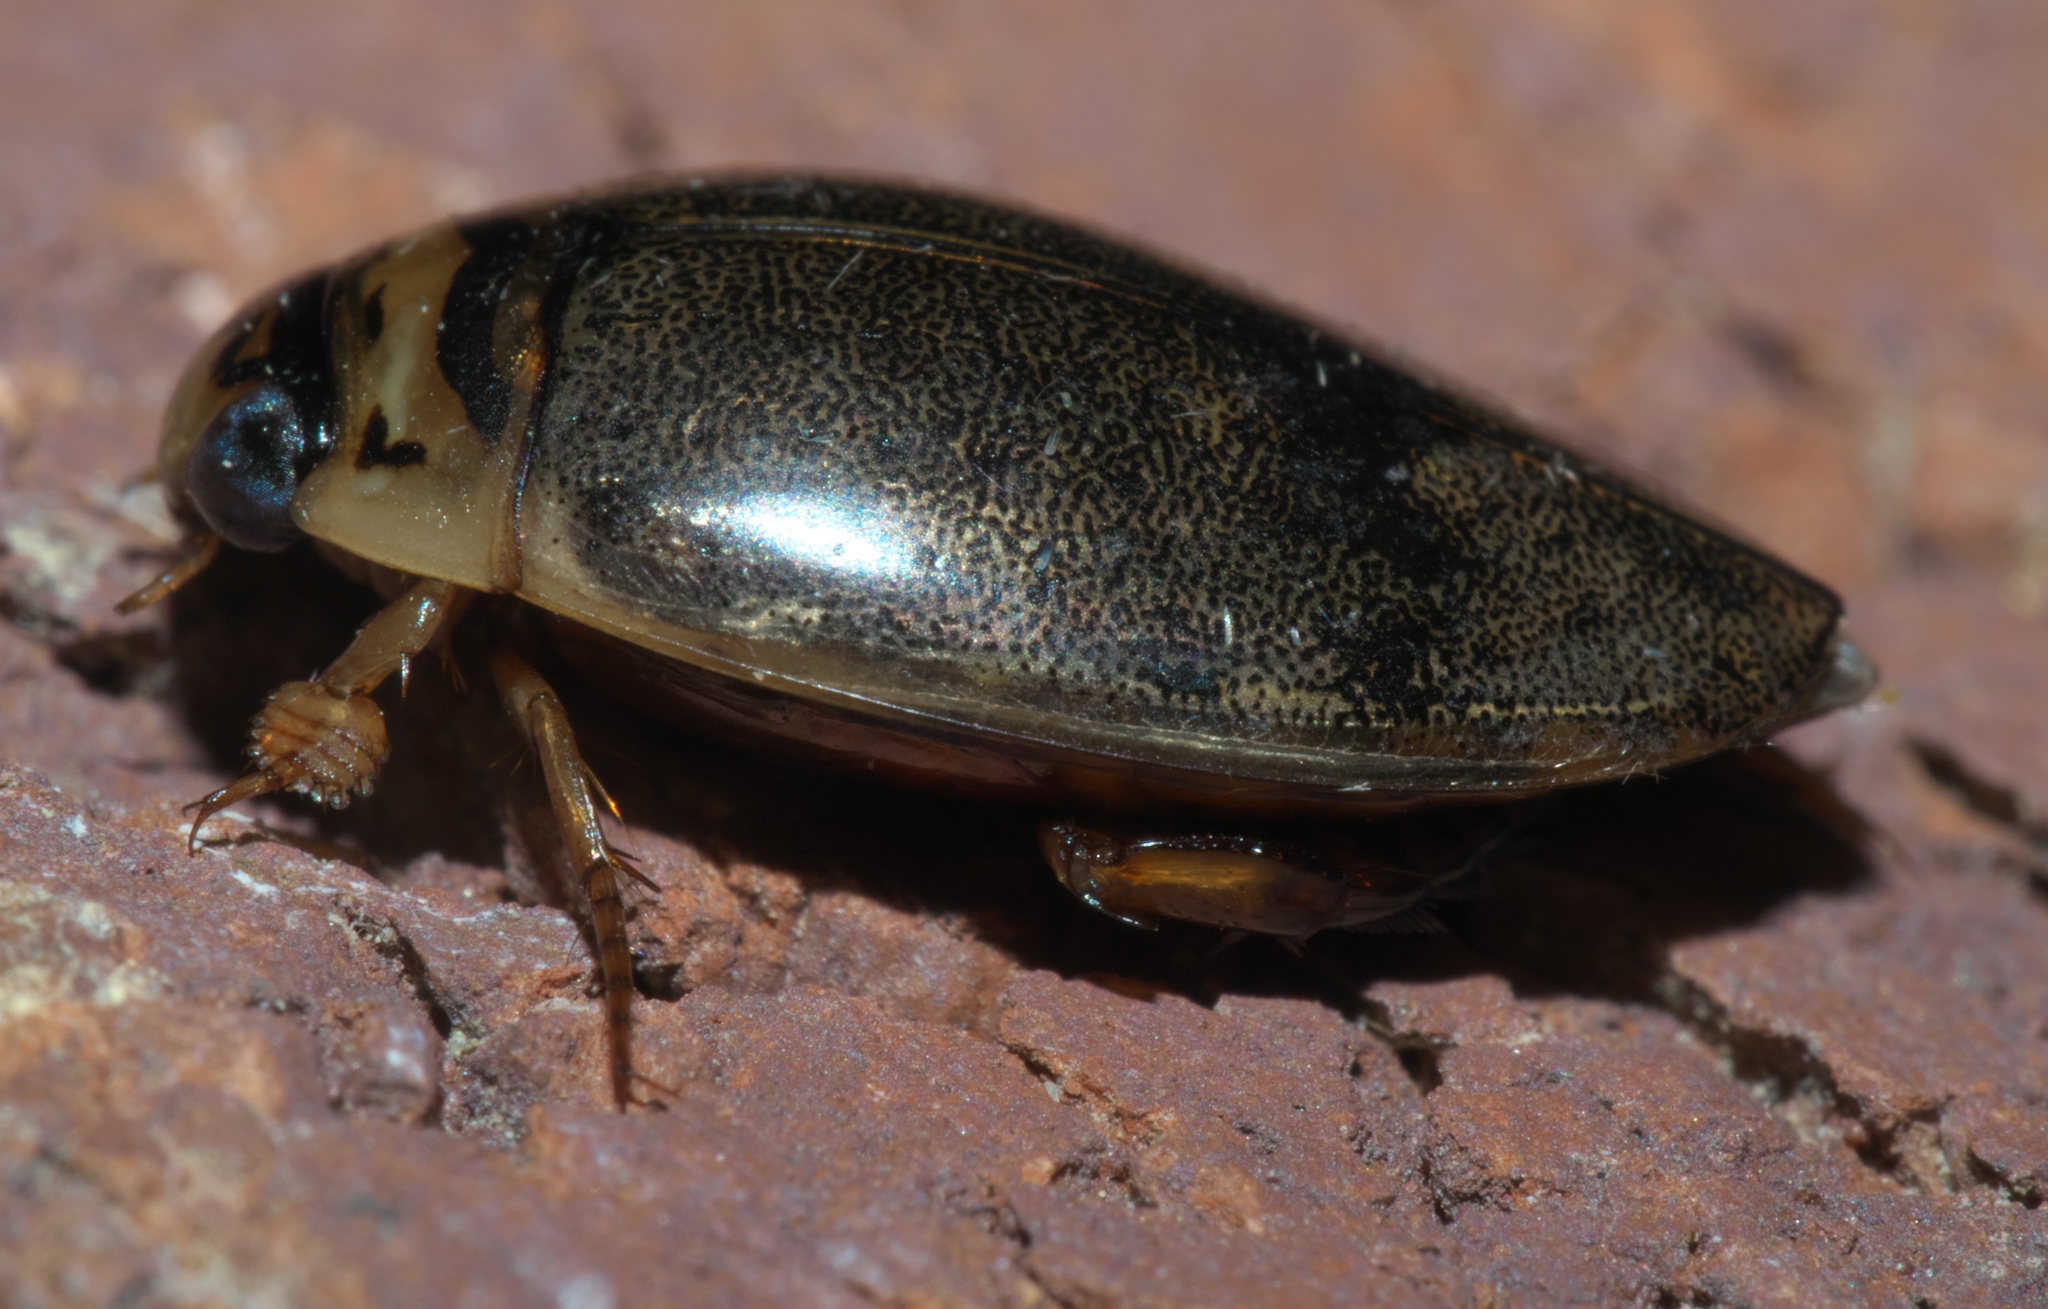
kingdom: Animalia
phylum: Arthropoda
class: Insecta
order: Coleoptera
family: Dytiscidae
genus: Thermonectus
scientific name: Thermonectus nigrofasciatus
